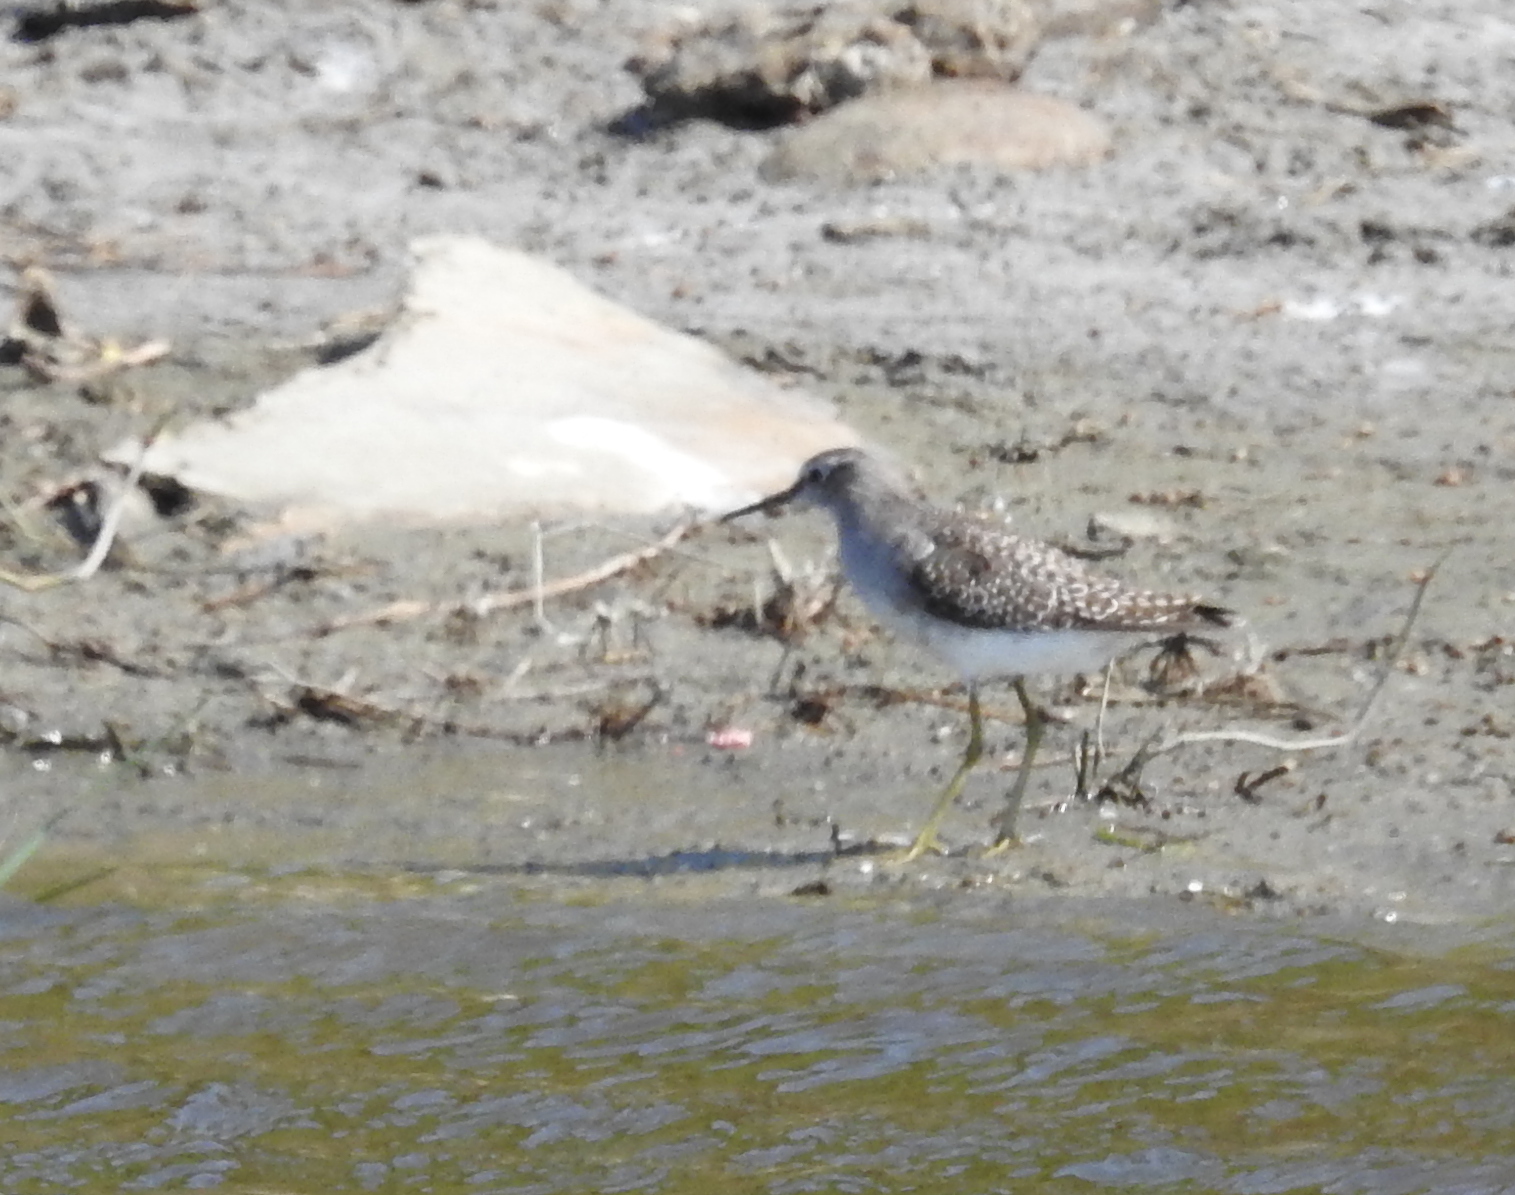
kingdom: Animalia
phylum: Chordata
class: Aves
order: Charadriiformes
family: Scolopacidae
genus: Tringa
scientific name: Tringa glareola
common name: Wood sandpiper
